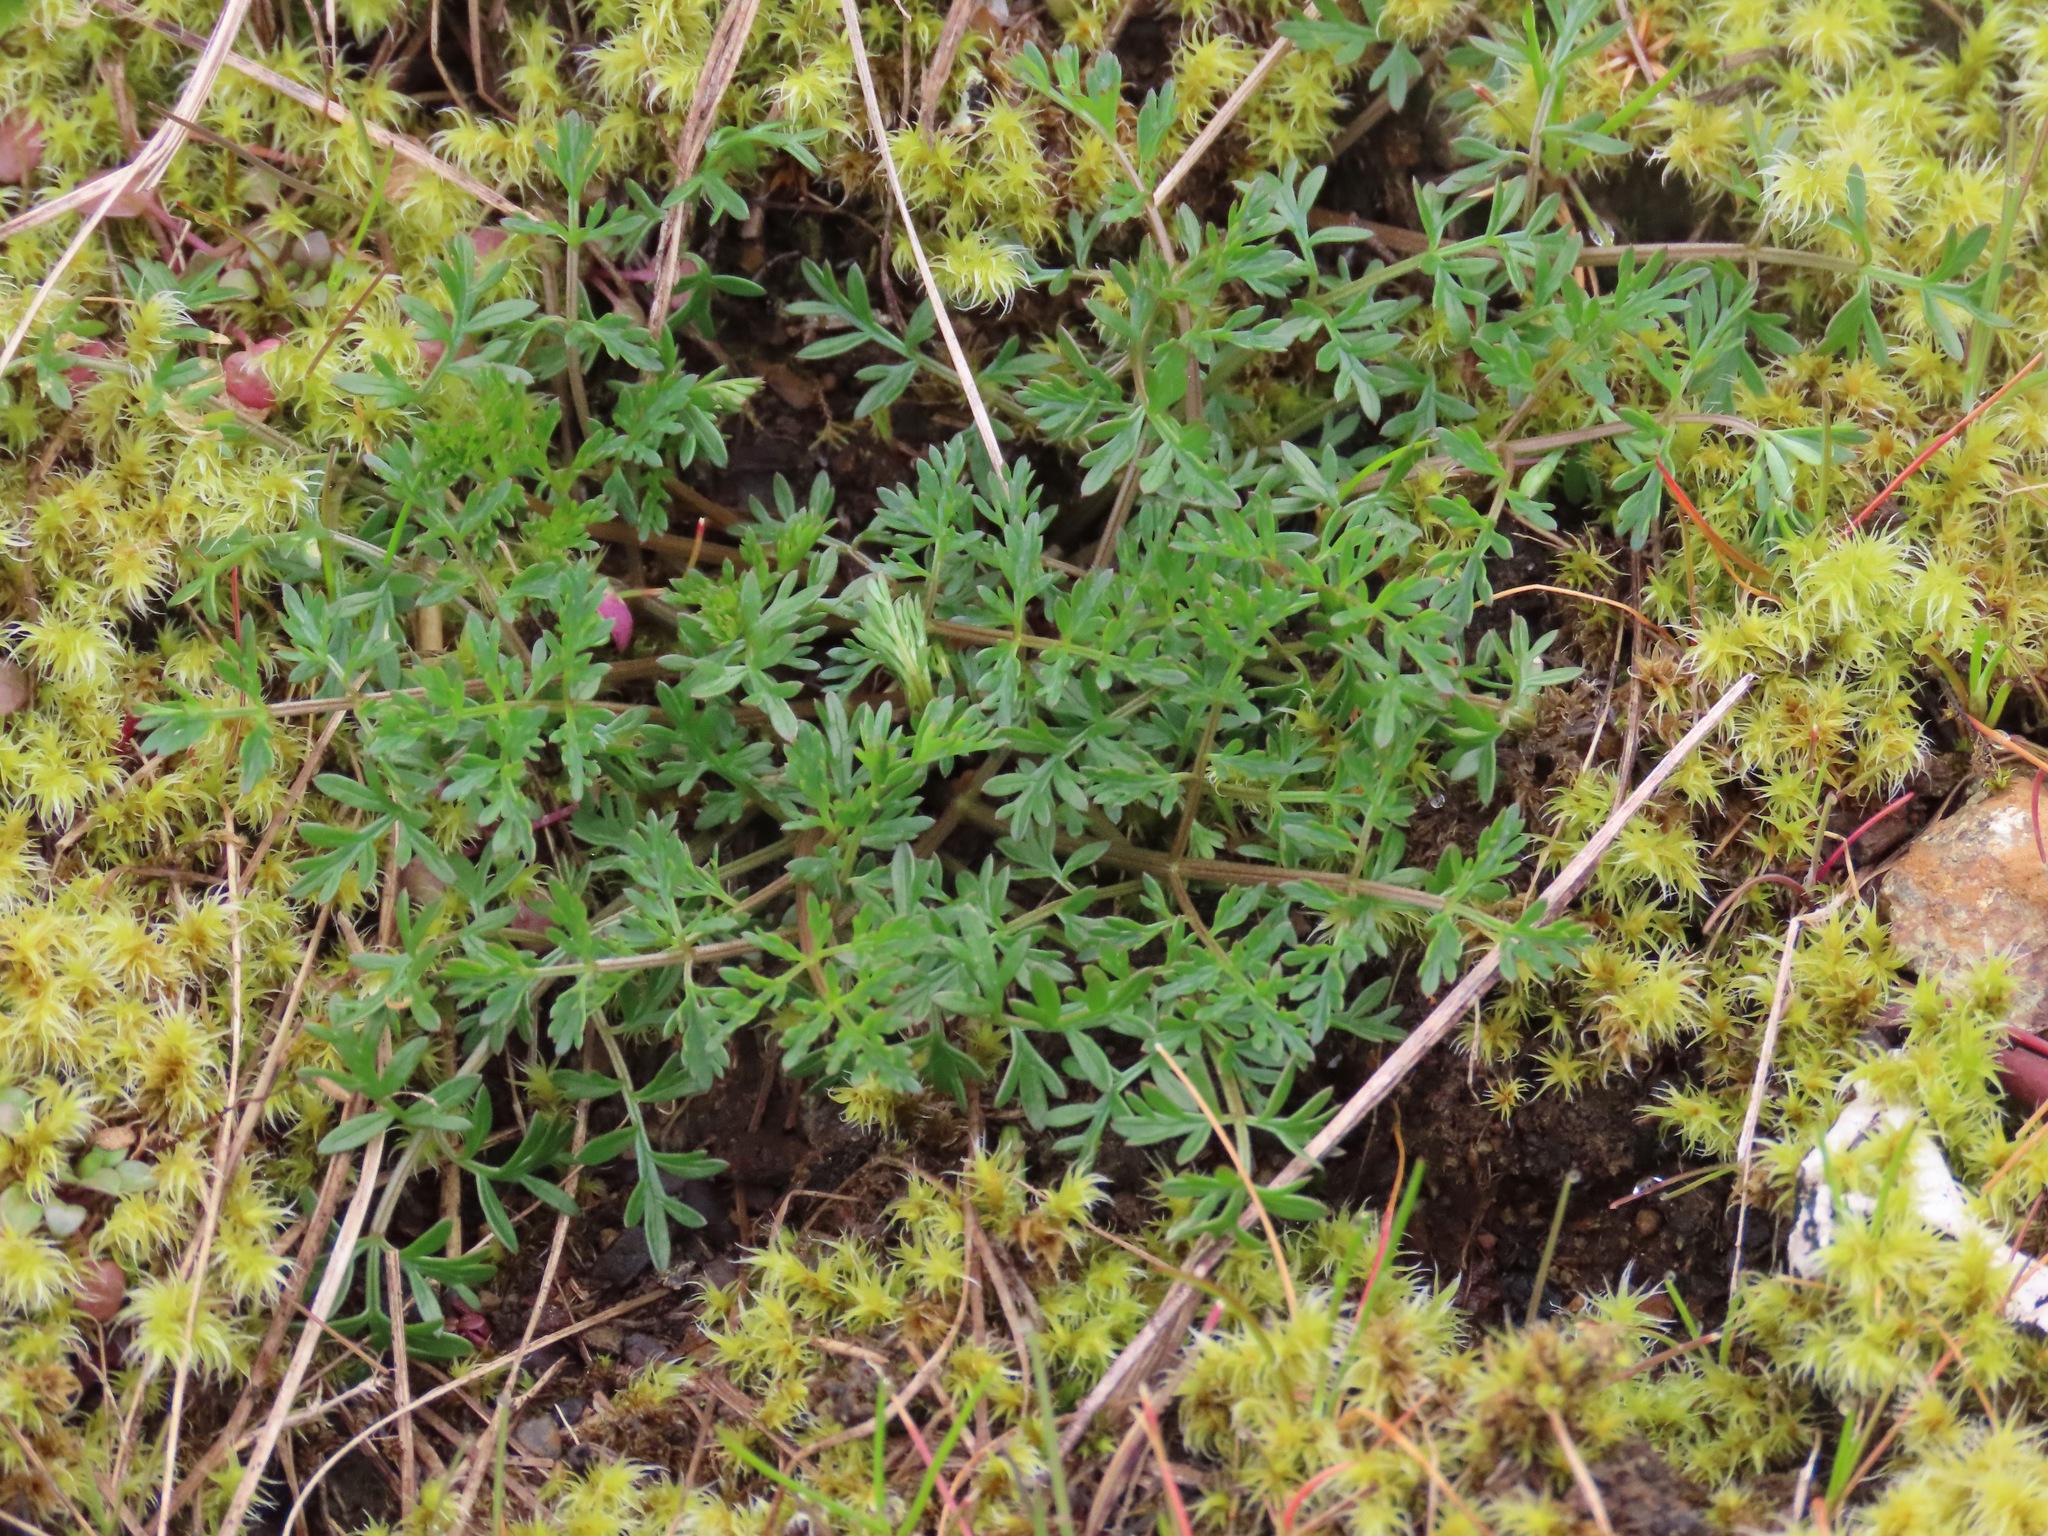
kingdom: Plantae
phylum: Tracheophyta
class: Magnoliopsida
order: Apiales
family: Apiaceae
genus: Lomatium
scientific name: Lomatium utriculatum
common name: Fine-leaf desert-parsley
